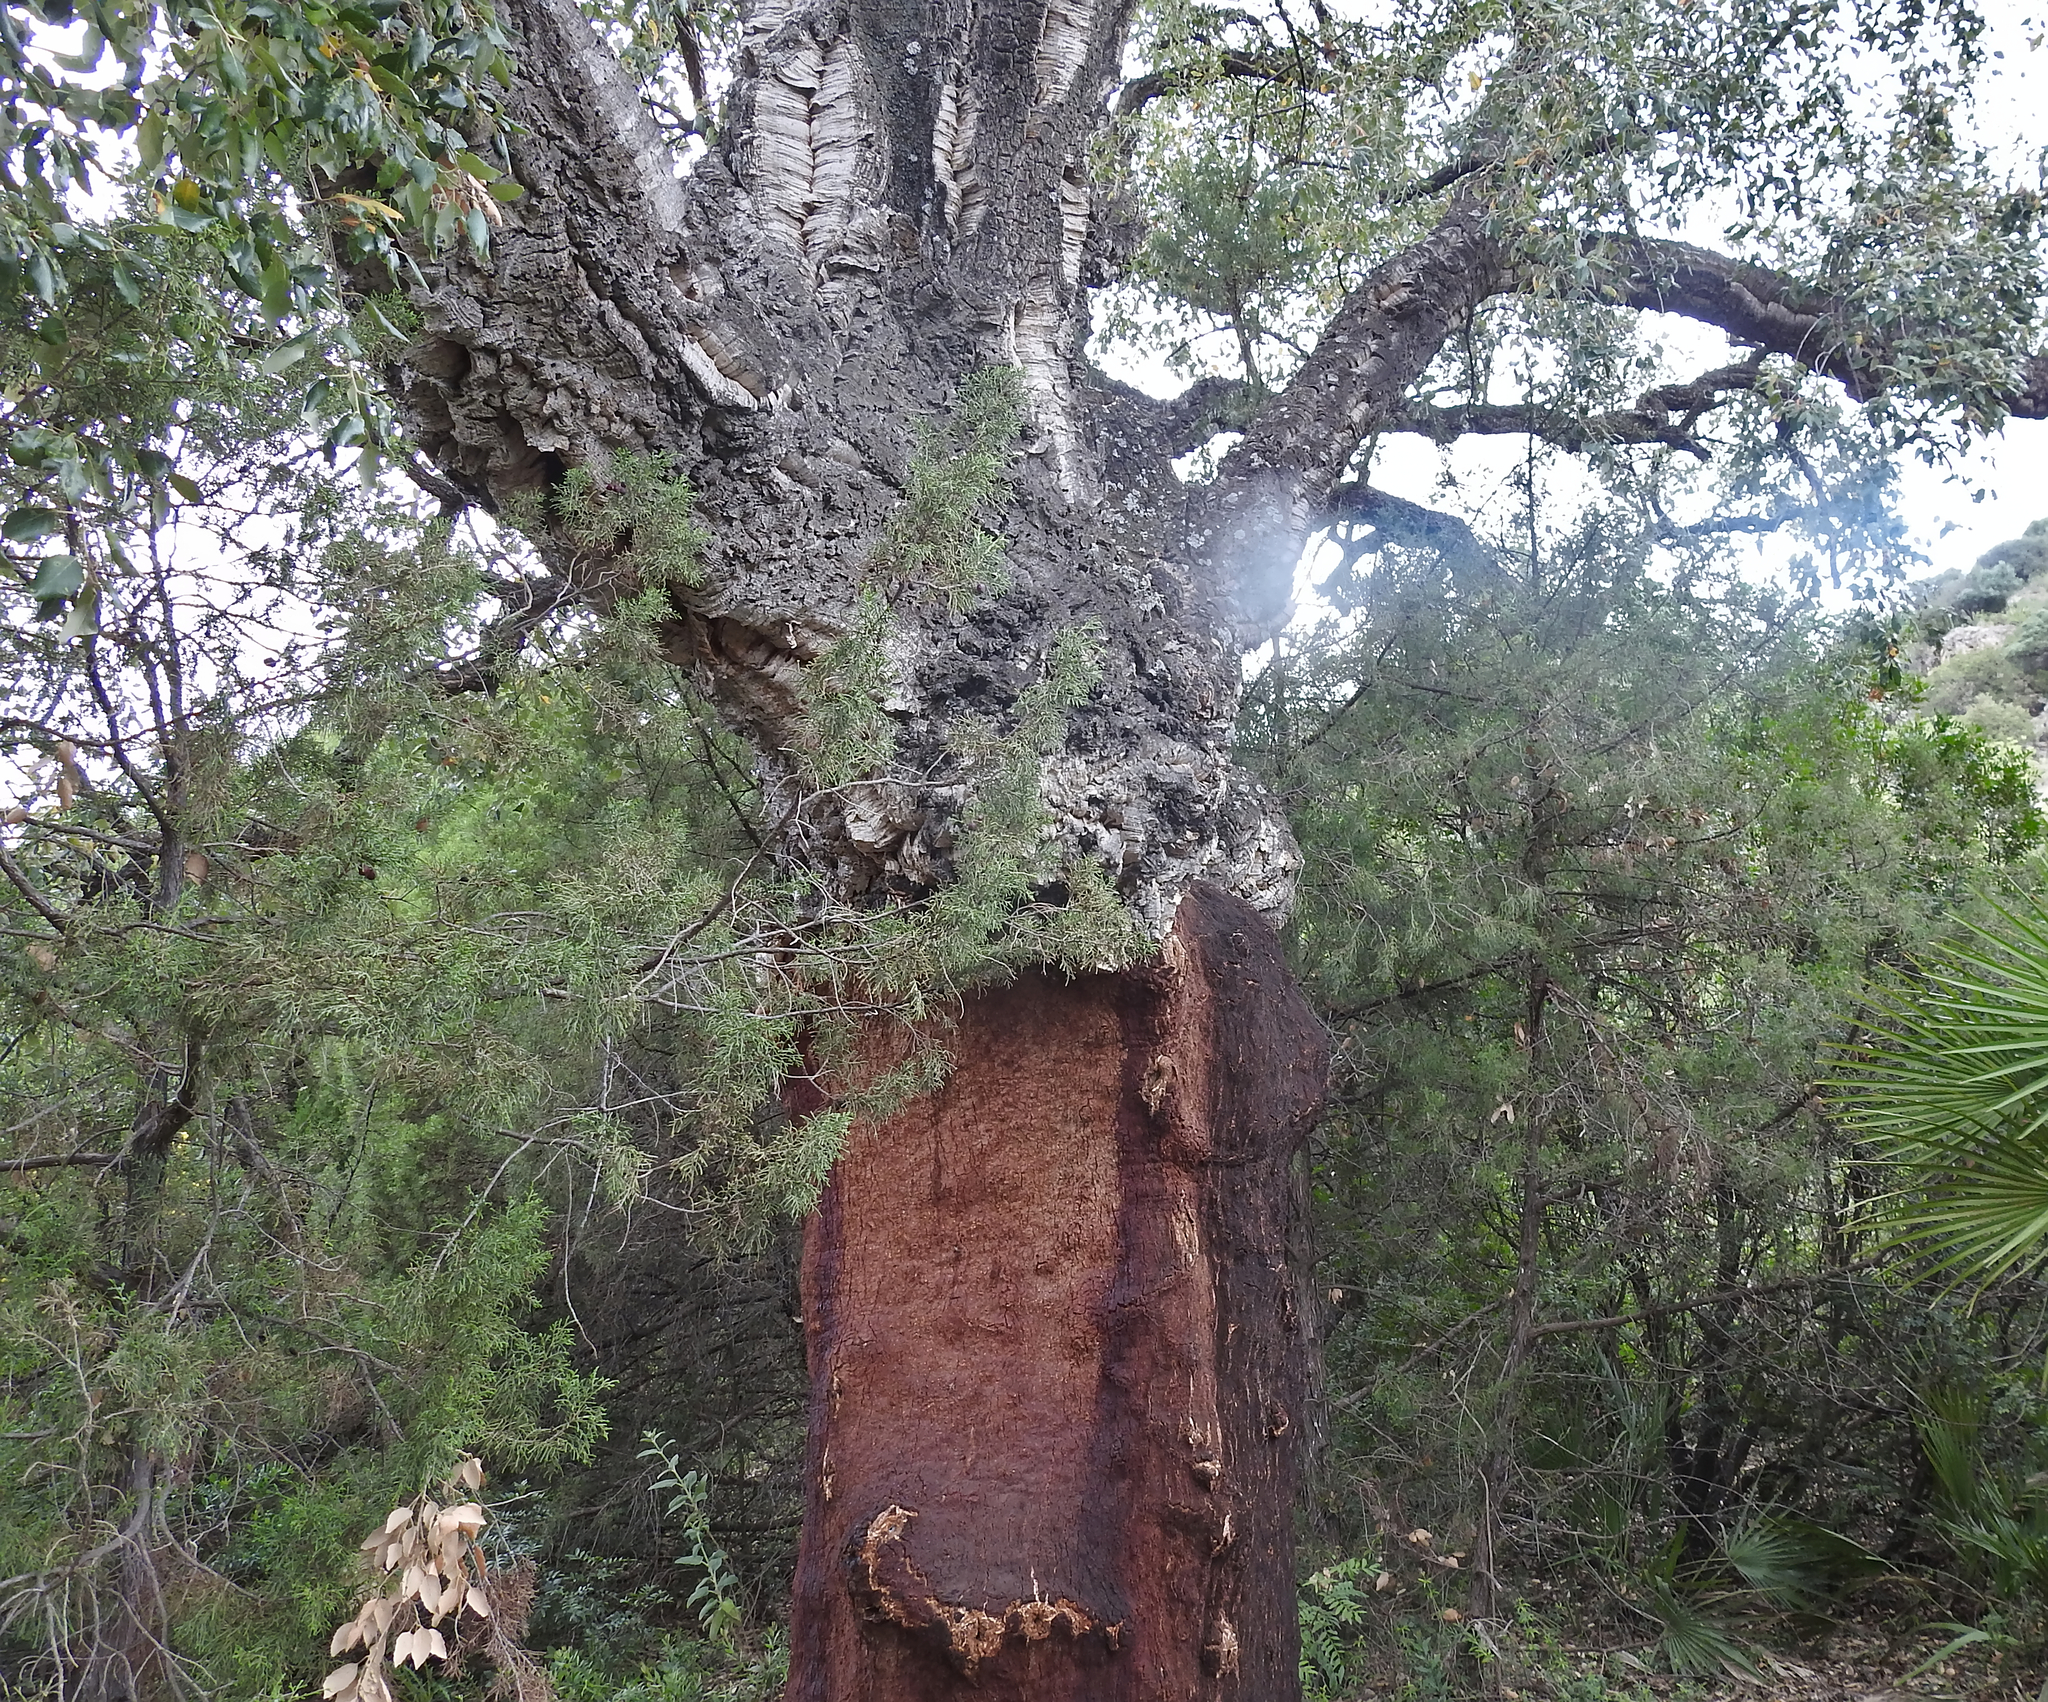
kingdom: Plantae
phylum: Tracheophyta
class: Magnoliopsida
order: Fagales
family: Fagaceae
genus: Quercus
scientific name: Quercus suber
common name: Cork oak
